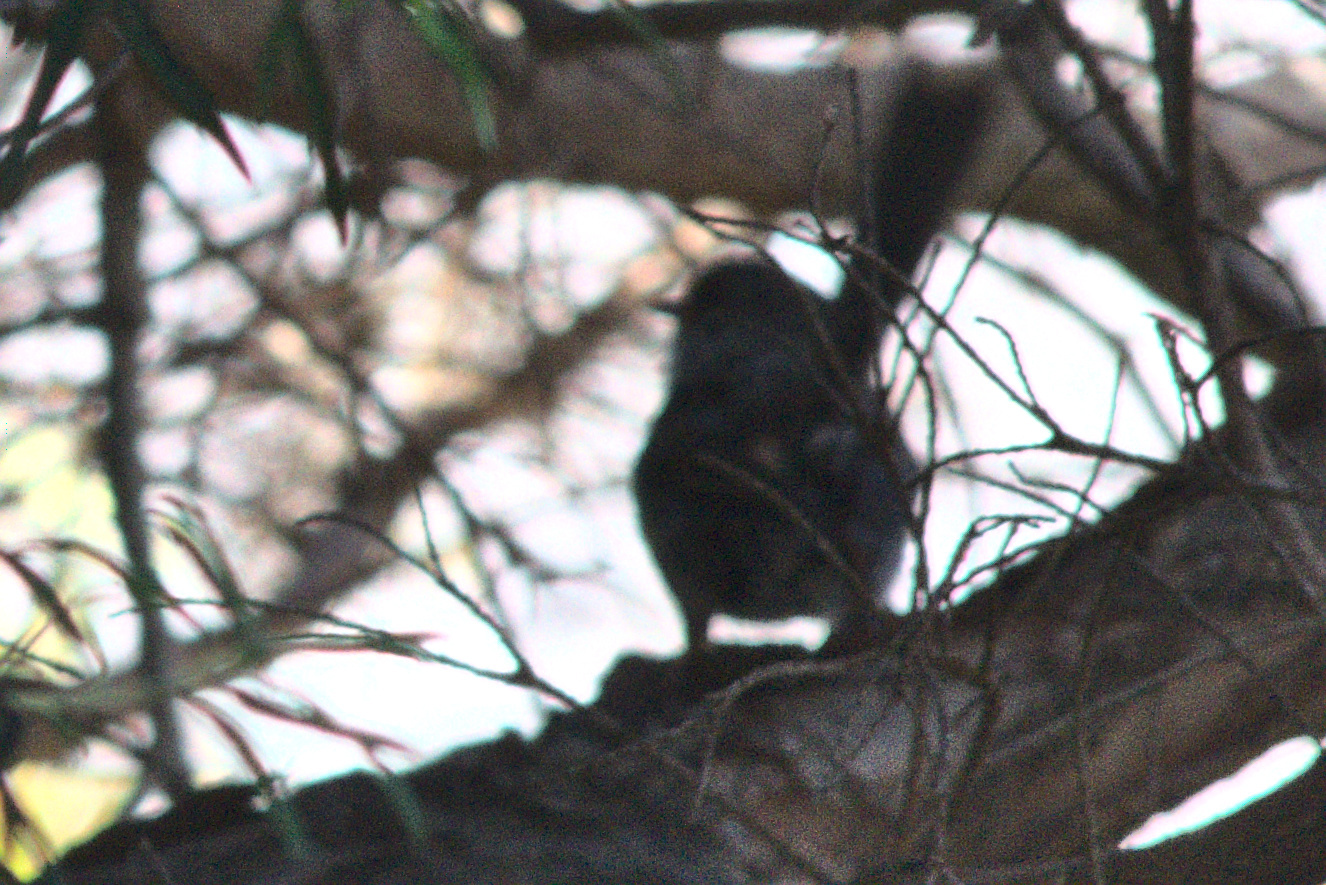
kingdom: Animalia
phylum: Chordata
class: Aves
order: Passeriformes
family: Maluridae
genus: Malurus
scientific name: Malurus cyaneus
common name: Superb fairywren
